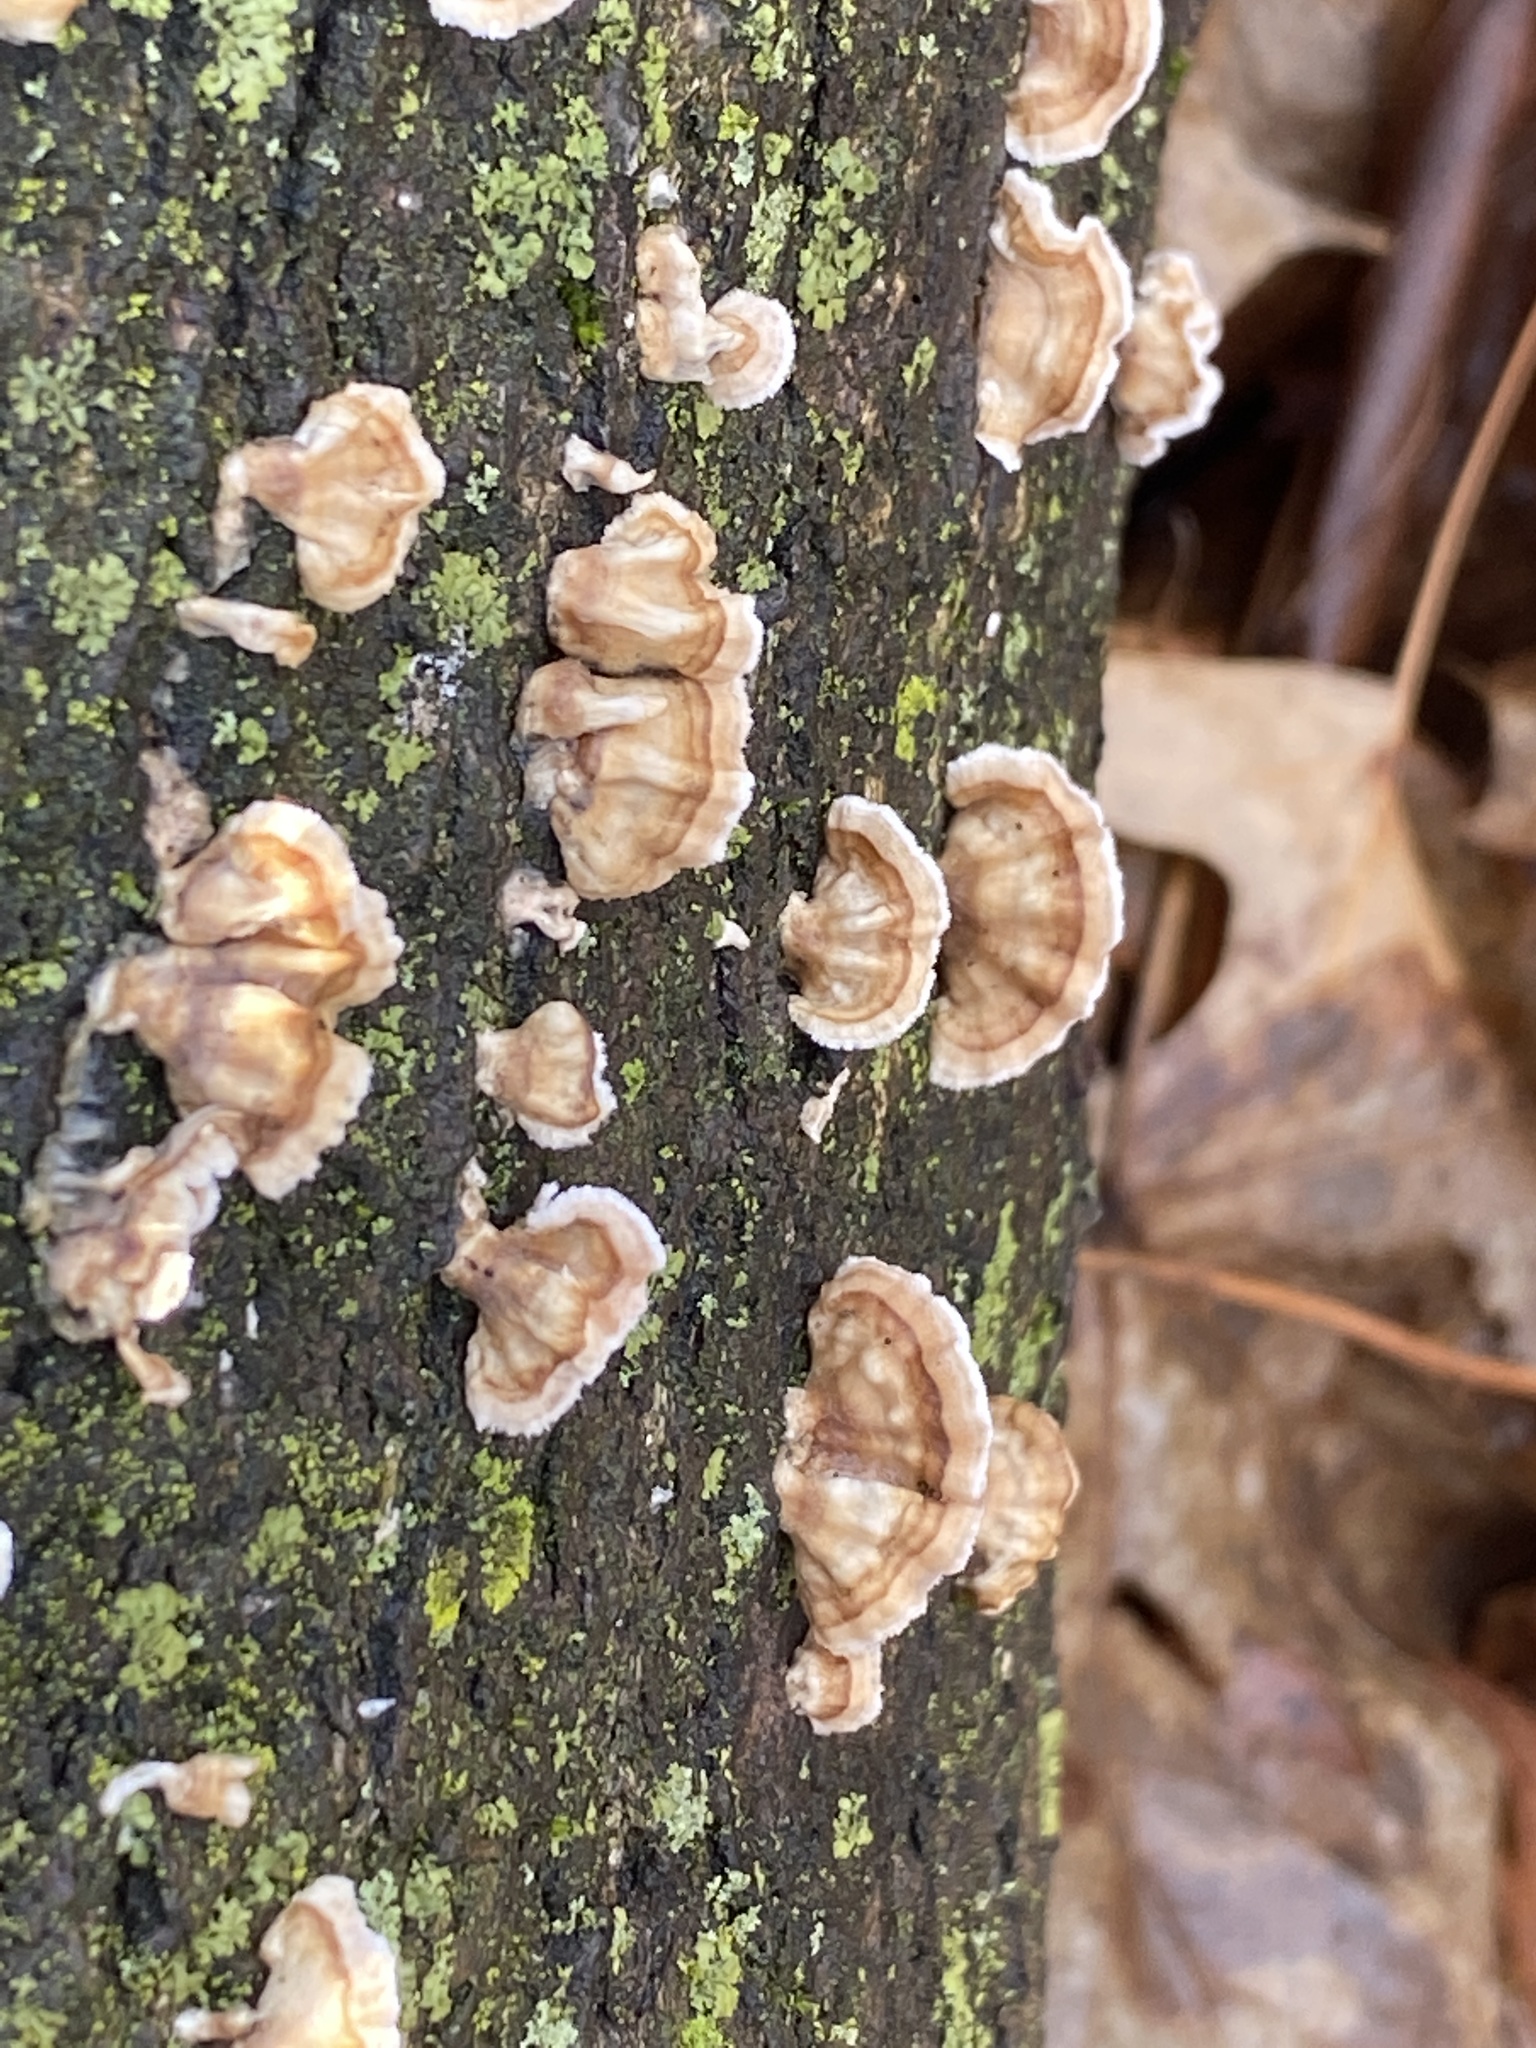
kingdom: Fungi
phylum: Basidiomycota
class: Agaricomycetes
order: Russulales
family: Stereaceae
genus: Stereum
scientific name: Stereum complicatum
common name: Crowded parchment
